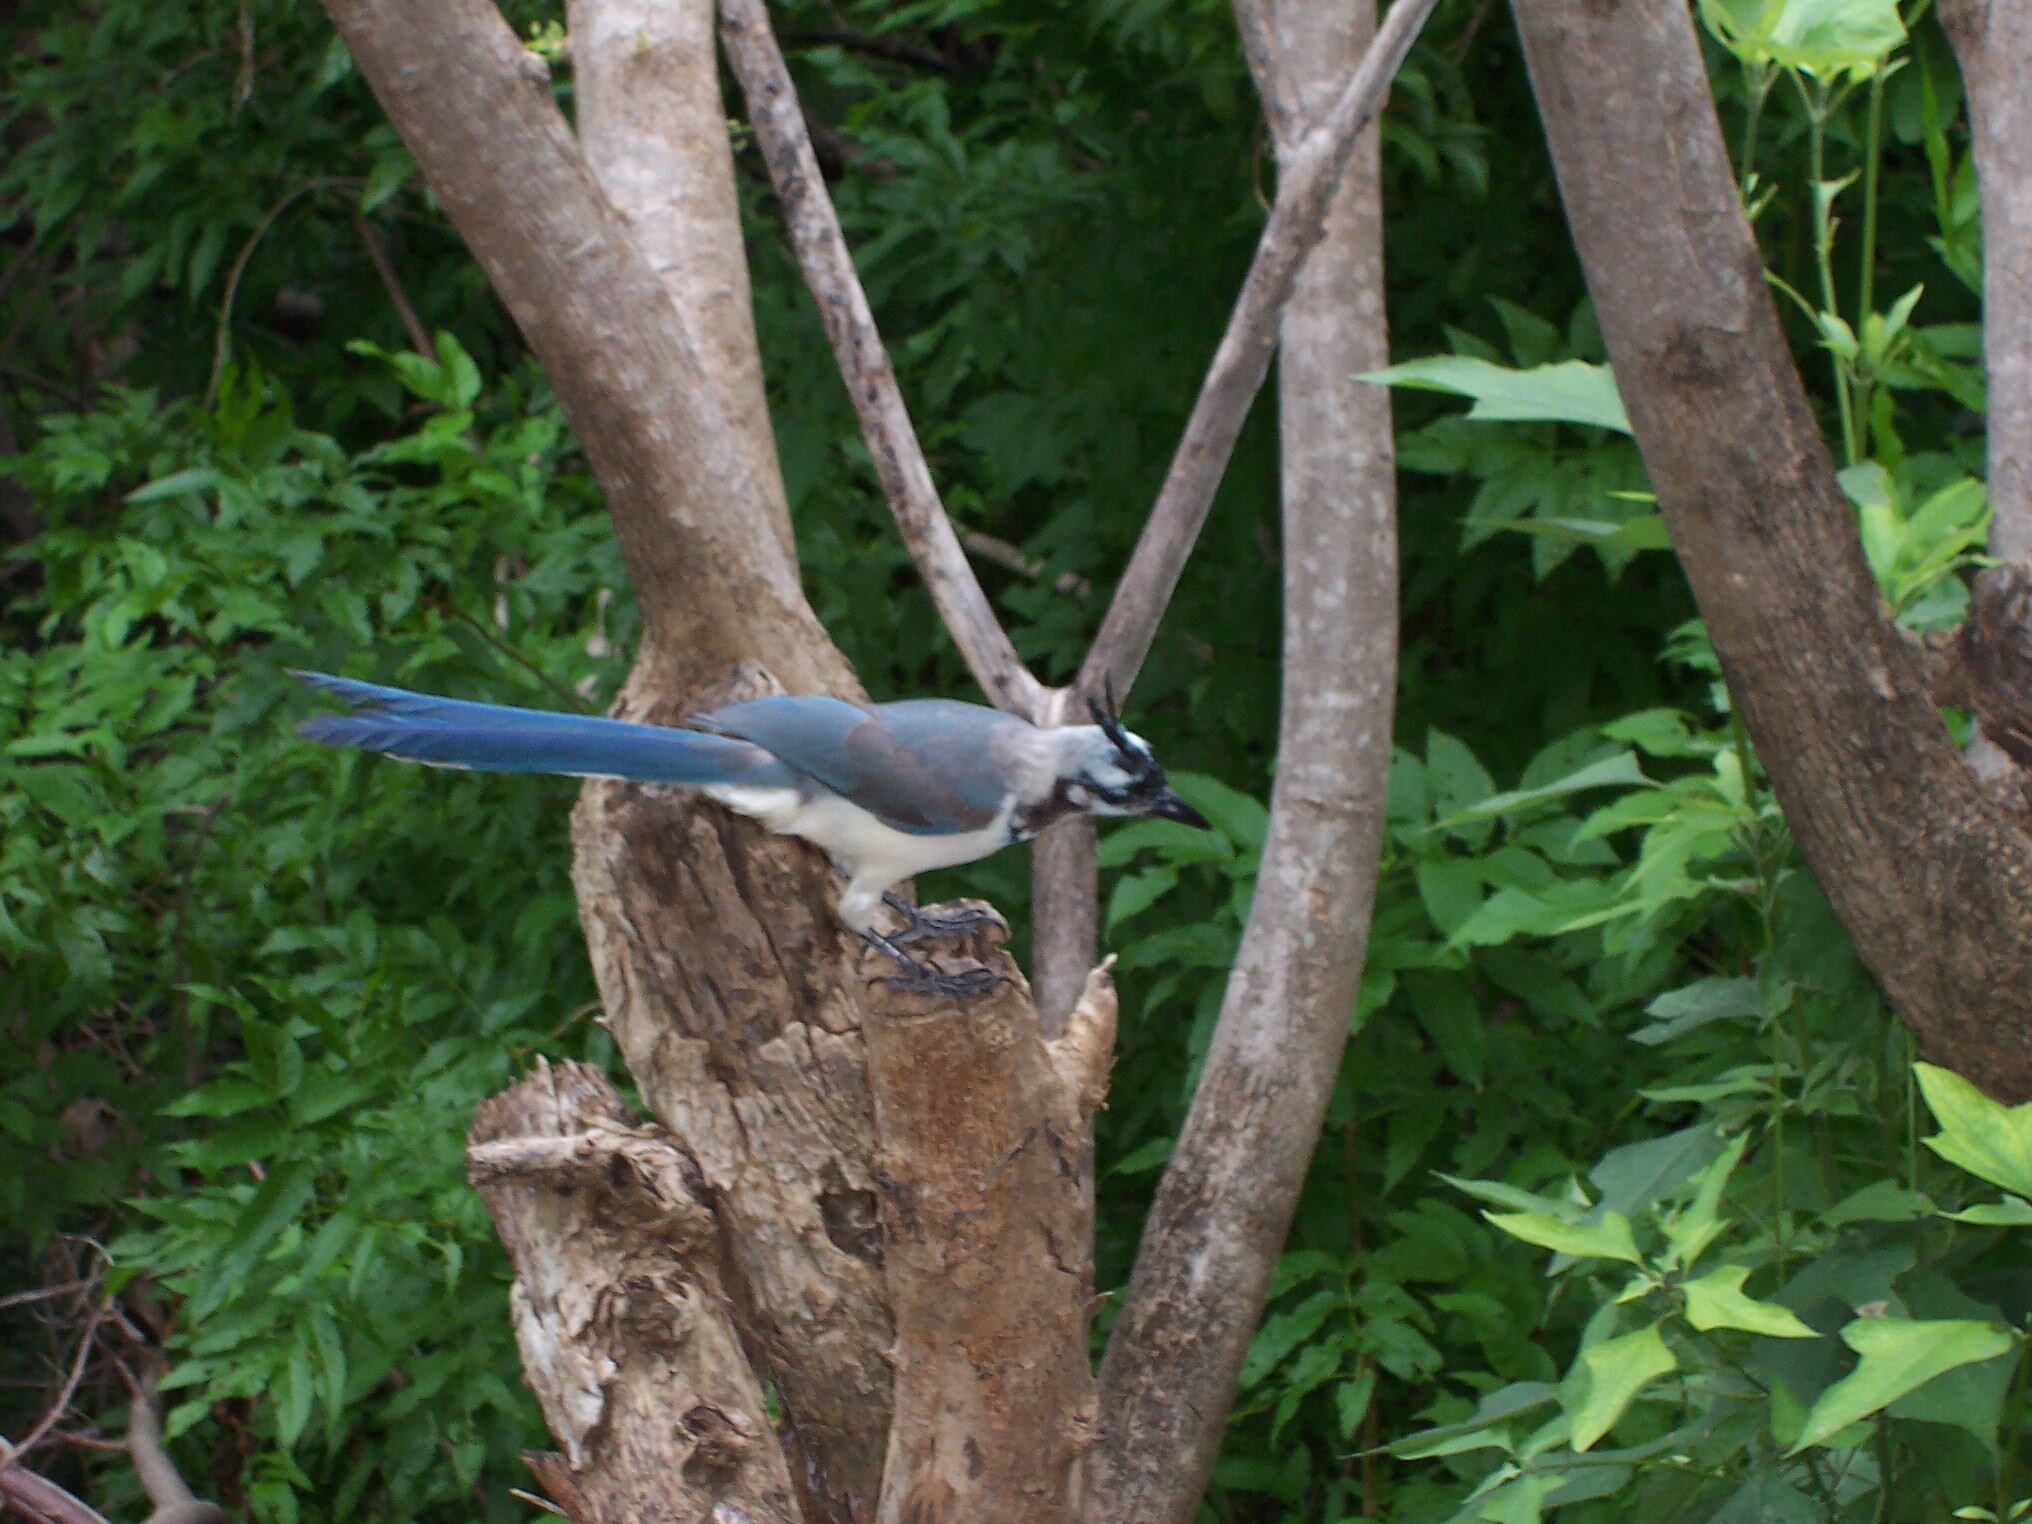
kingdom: Animalia
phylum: Chordata
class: Aves
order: Passeriformes
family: Corvidae
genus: Calocitta
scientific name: Calocitta formosa
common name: White-throated magpie-jay
